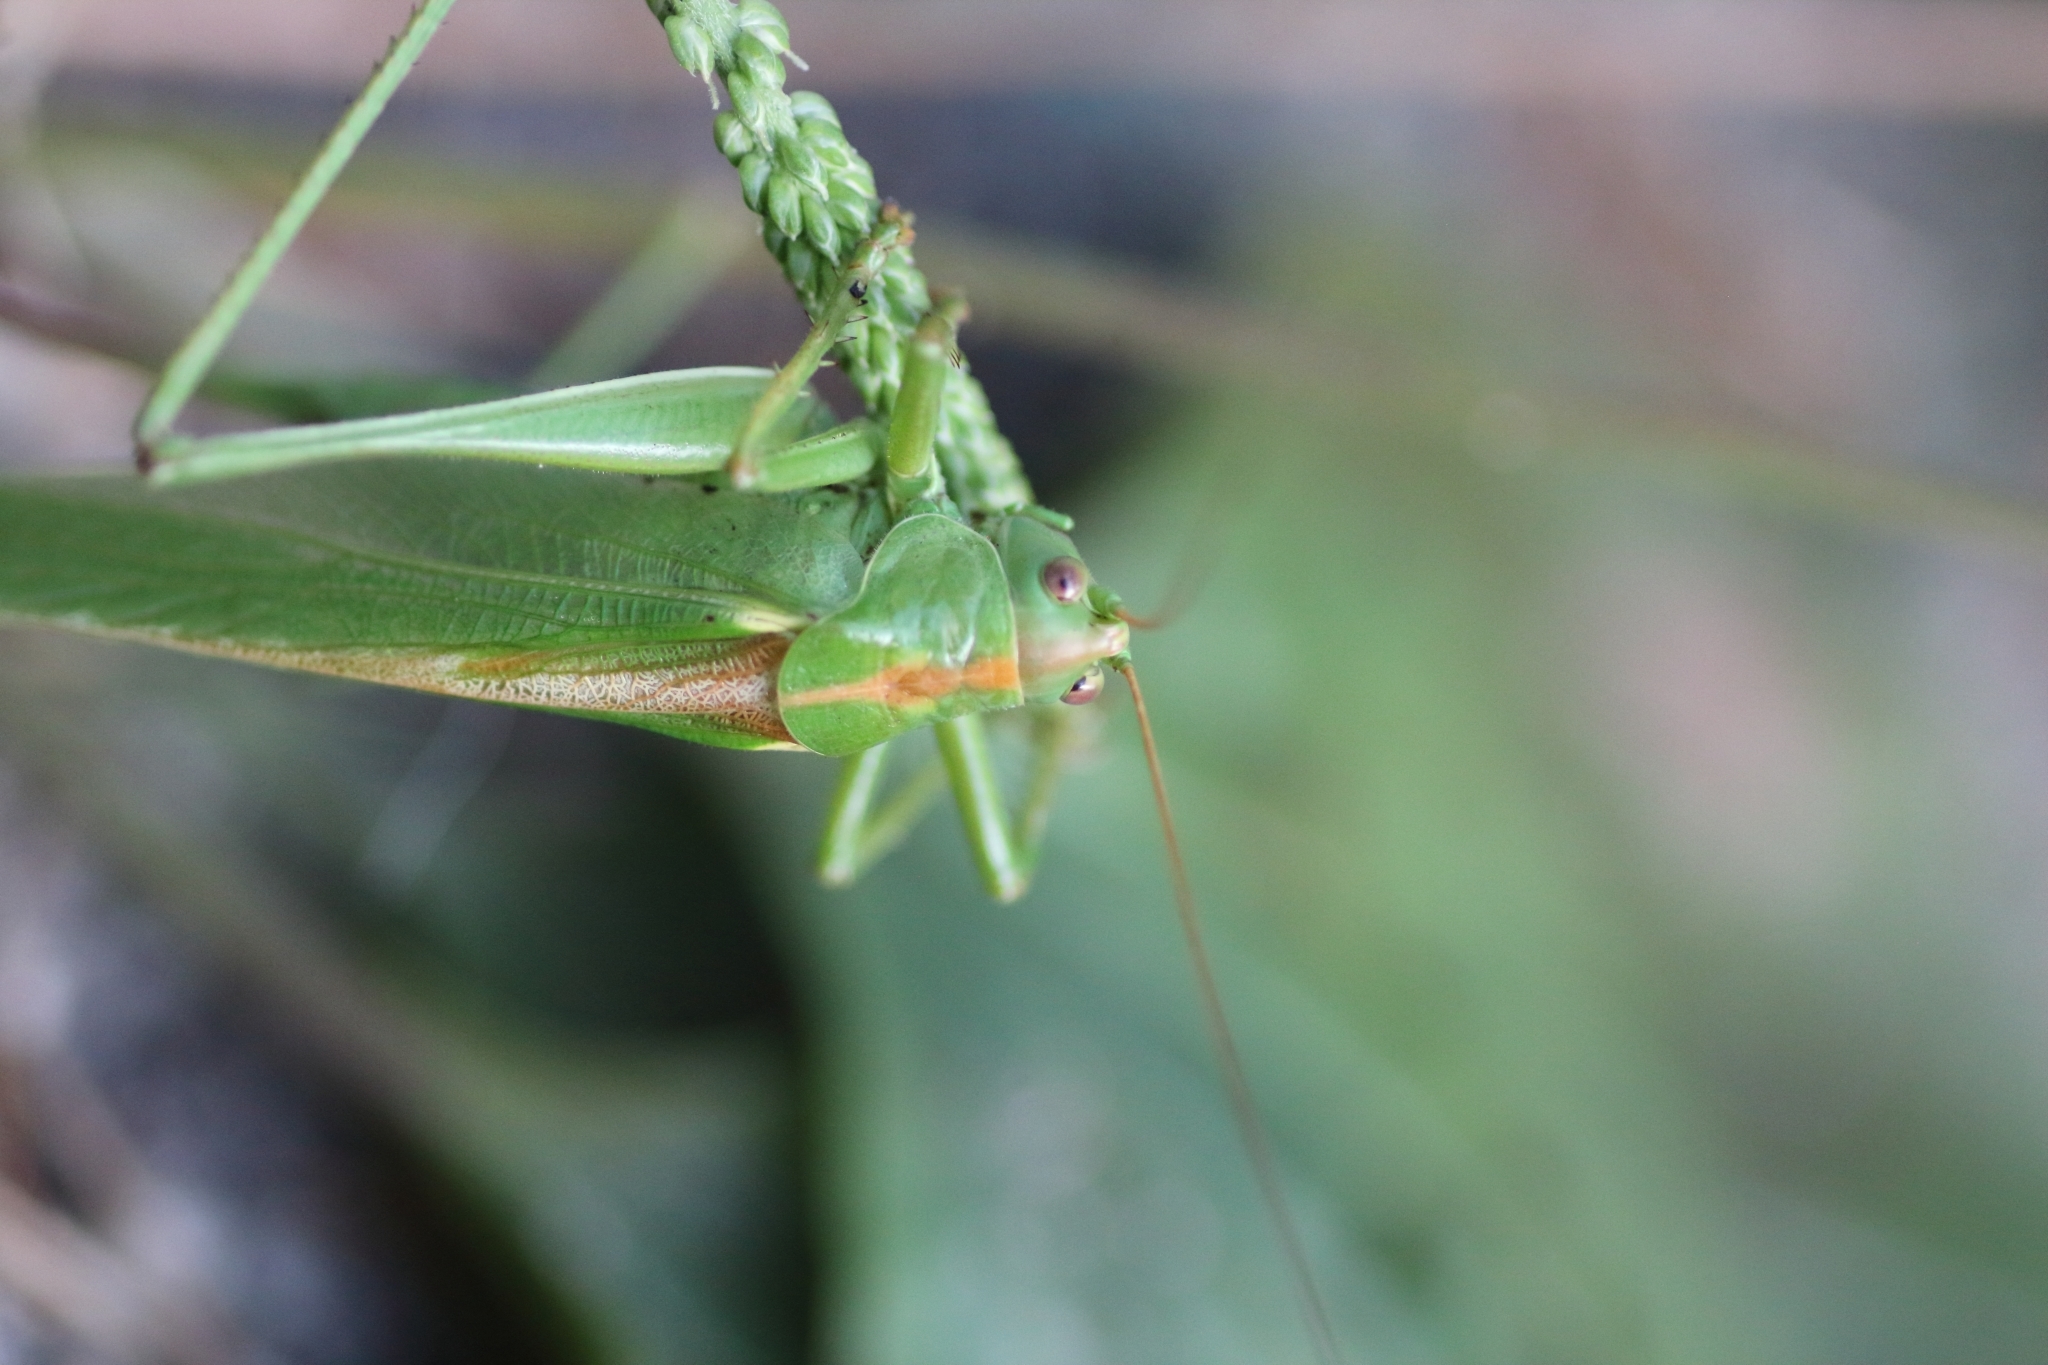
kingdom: Animalia
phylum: Arthropoda
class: Insecta
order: Orthoptera
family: Tettigoniidae
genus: Tettigonia
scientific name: Tettigonia viridissima
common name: Great green bush-cricket
